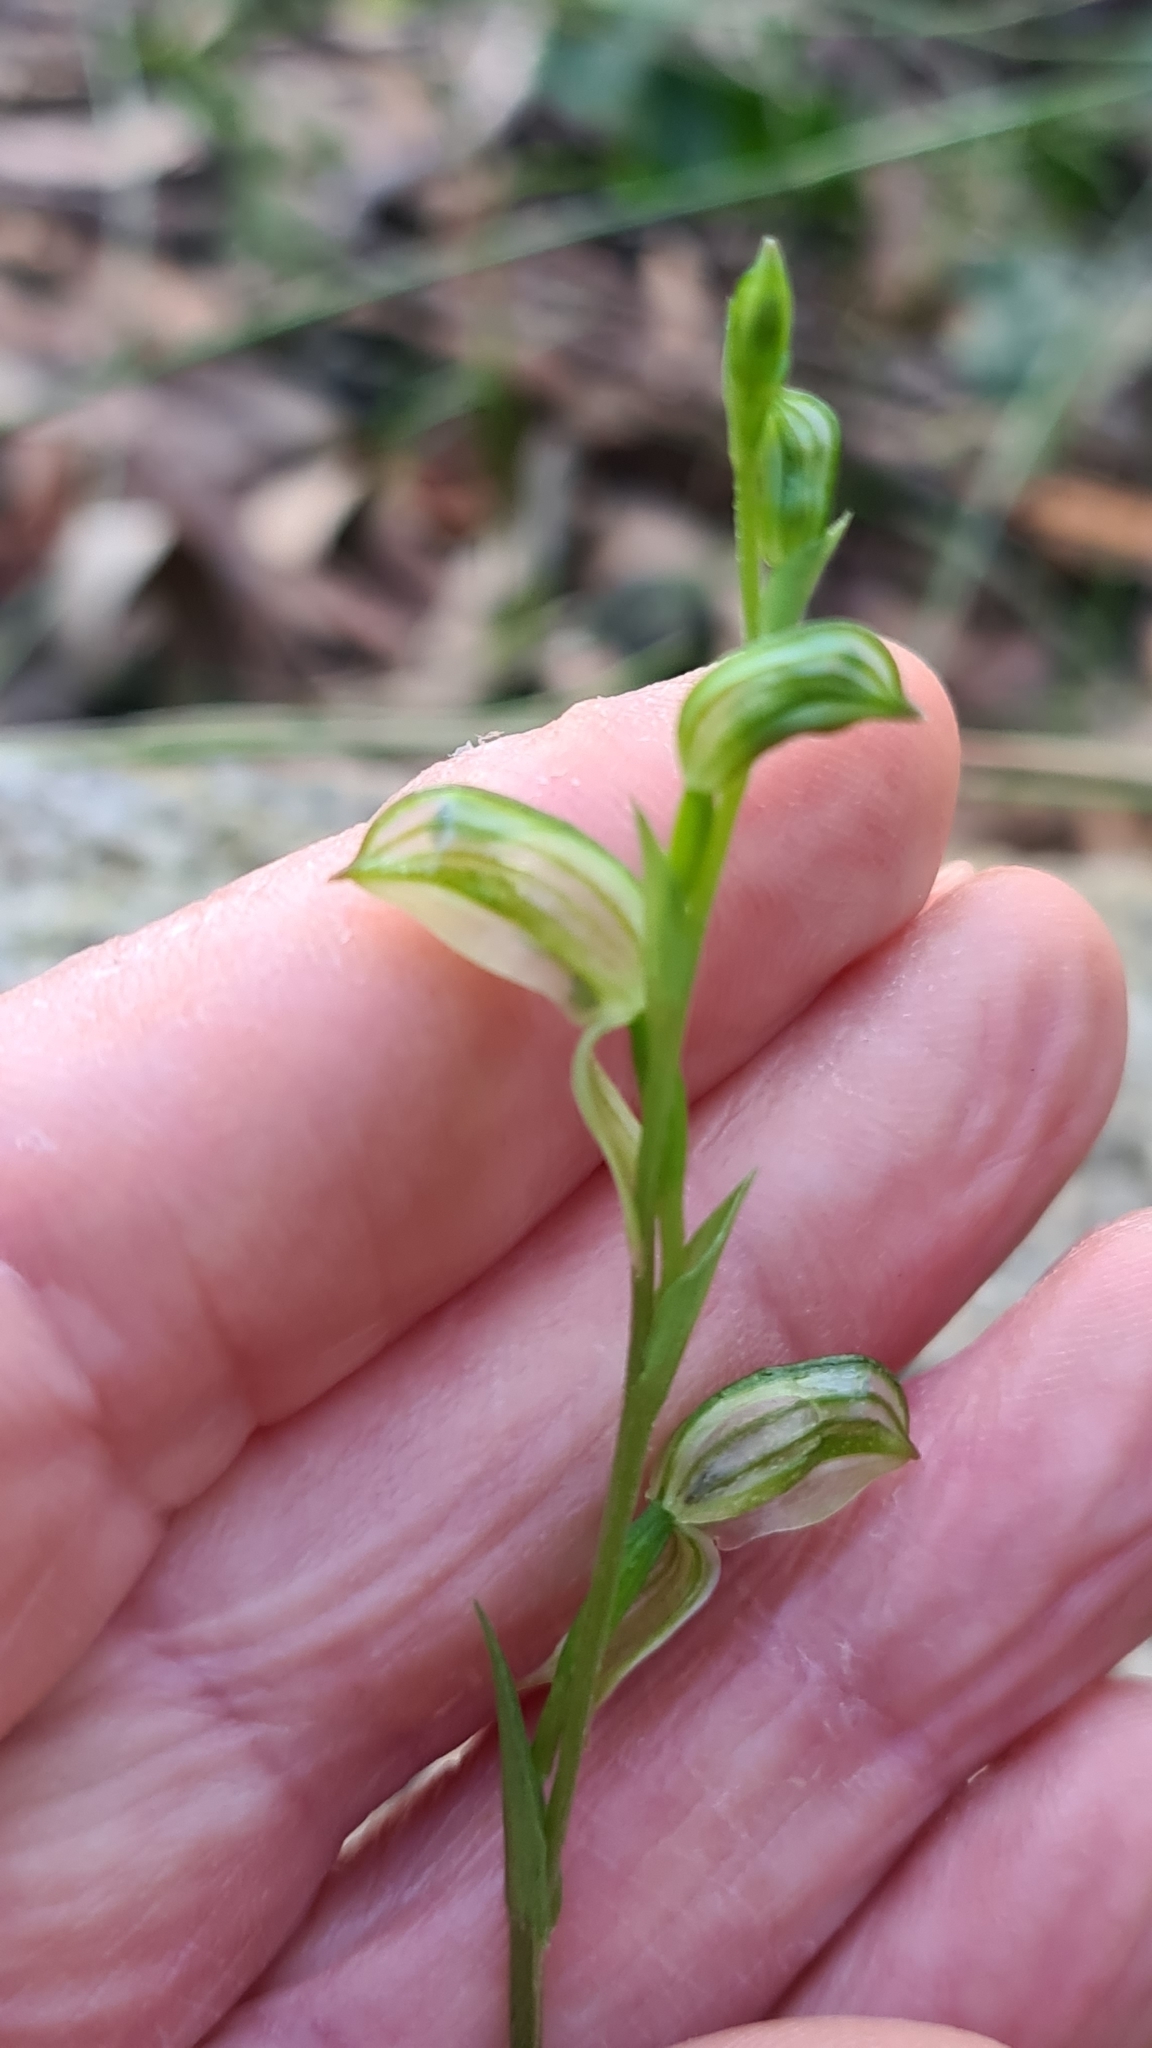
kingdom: Plantae
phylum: Tracheophyta
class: Liliopsida
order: Asparagales
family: Orchidaceae
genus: Pterostylis
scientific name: Pterostylis longifolia
